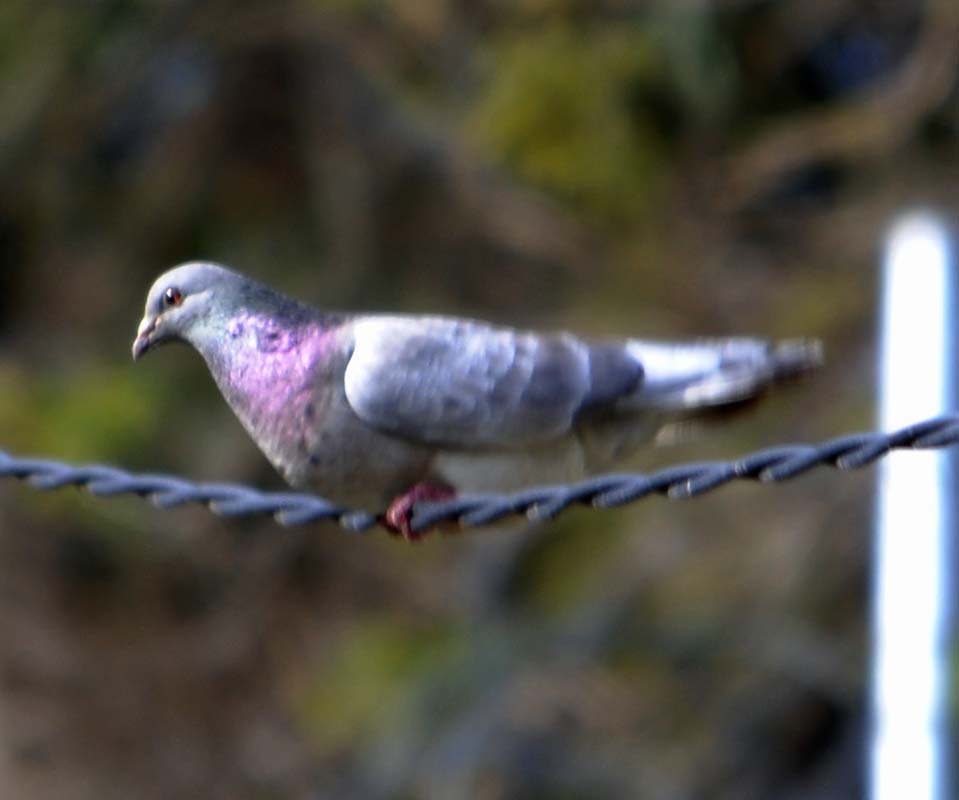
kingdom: Animalia
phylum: Chordata
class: Aves
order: Columbiformes
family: Columbidae
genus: Columba
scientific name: Columba livia
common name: Rock pigeon
